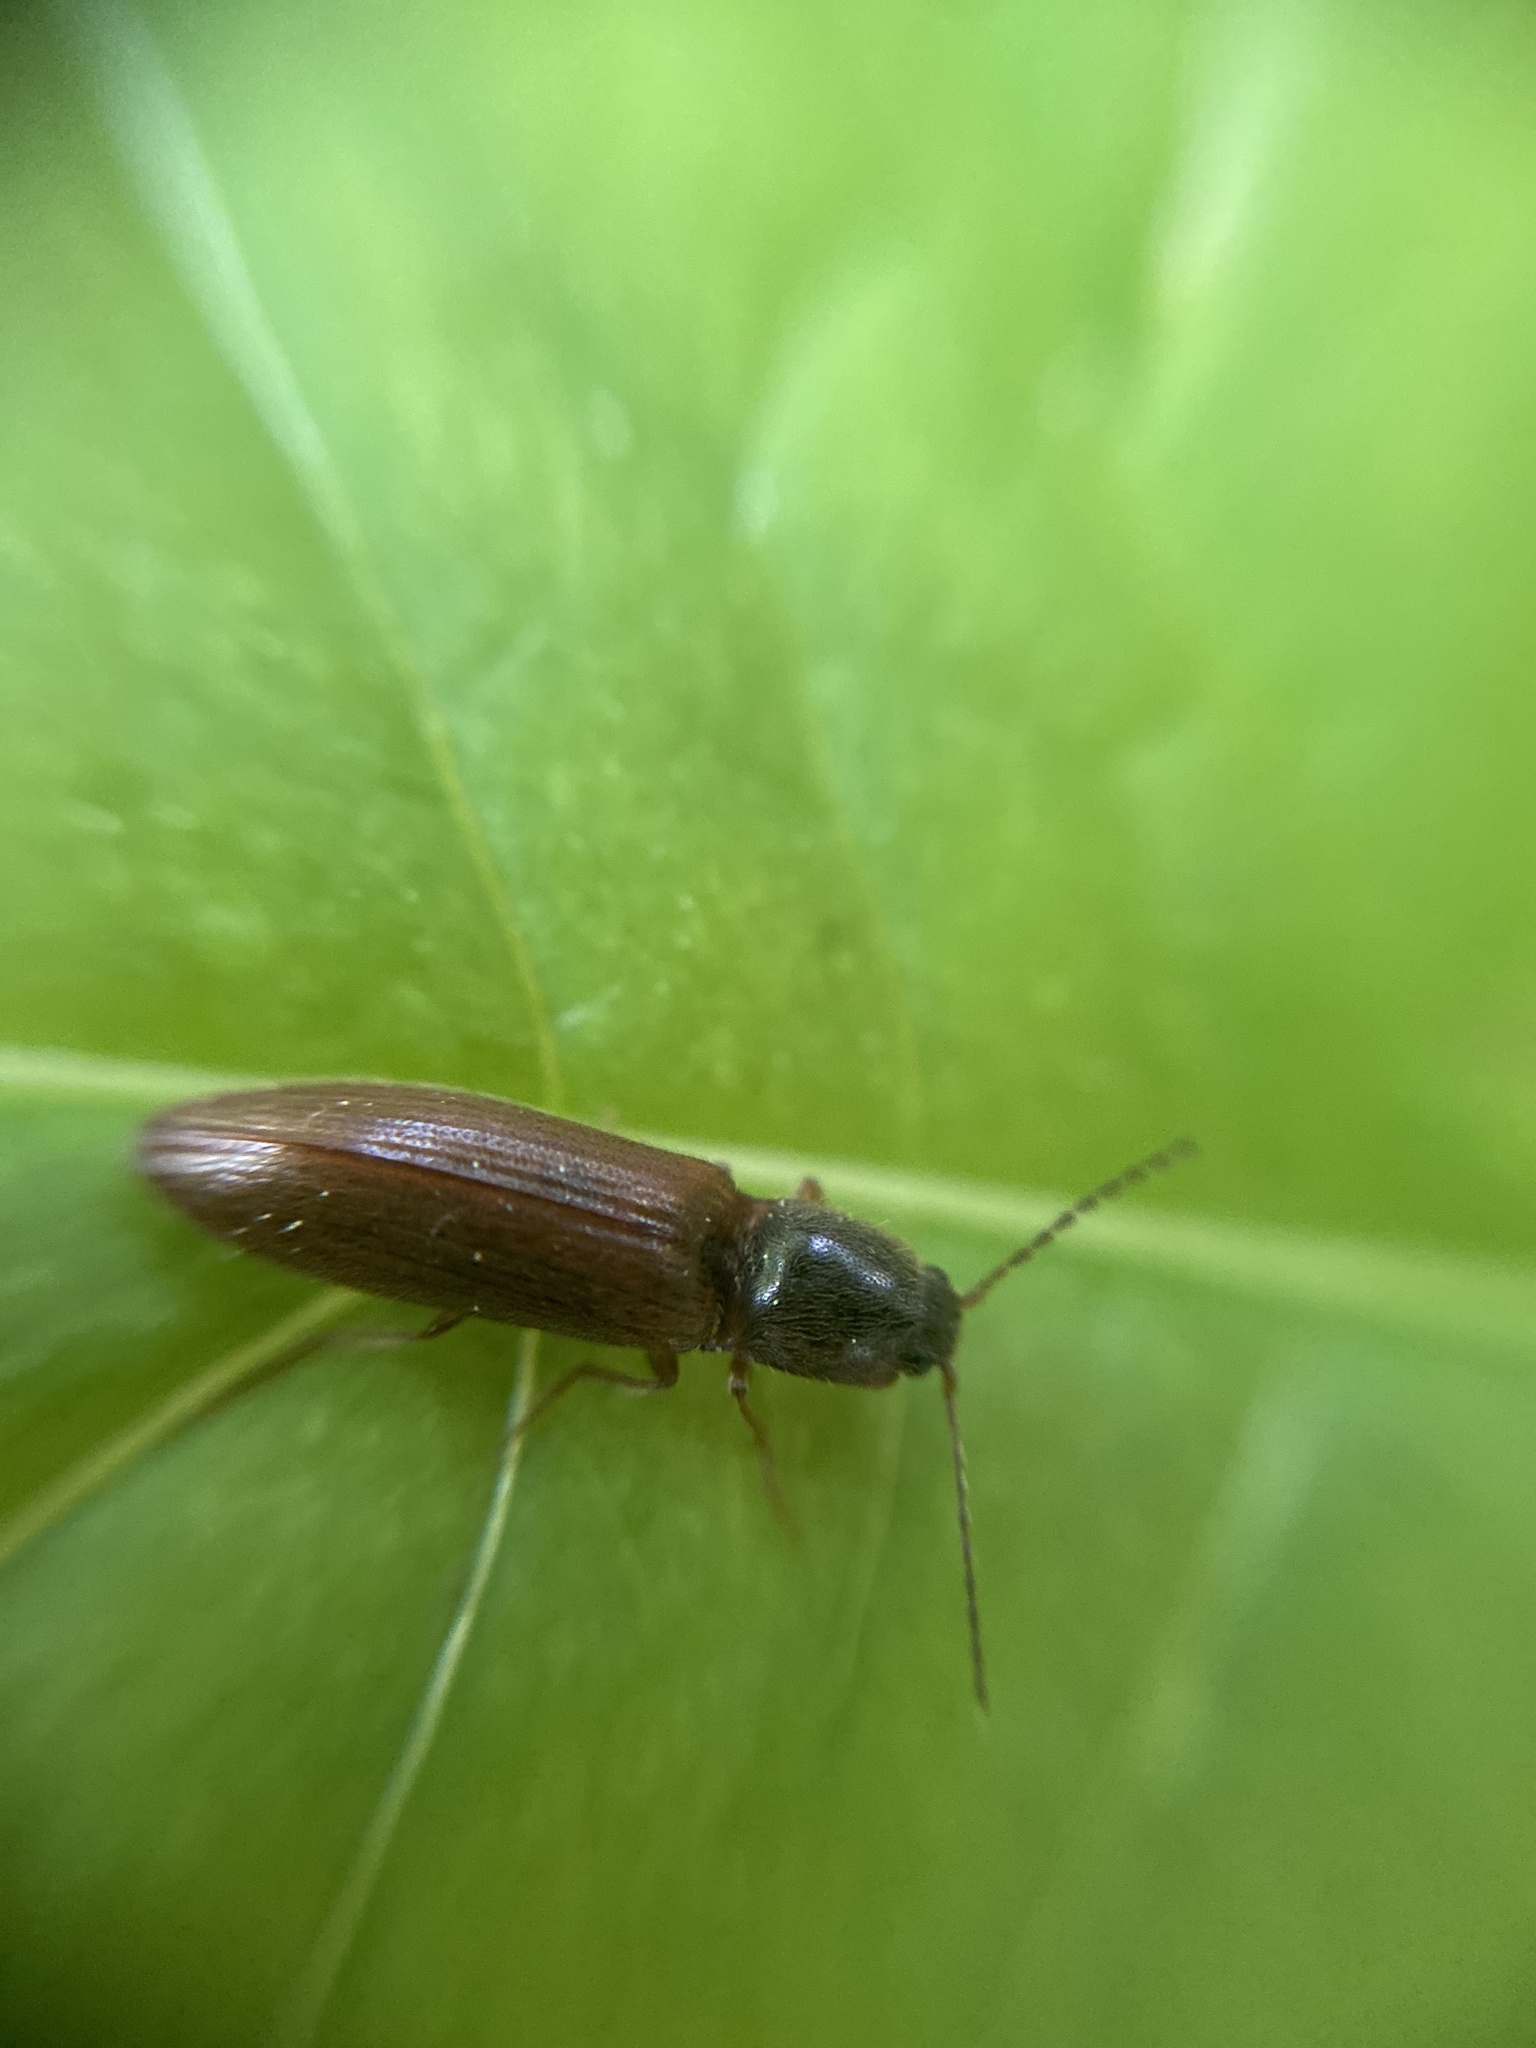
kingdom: Animalia
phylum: Arthropoda
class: Insecta
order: Coleoptera
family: Elateridae
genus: Athous
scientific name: Athous subfuscus
